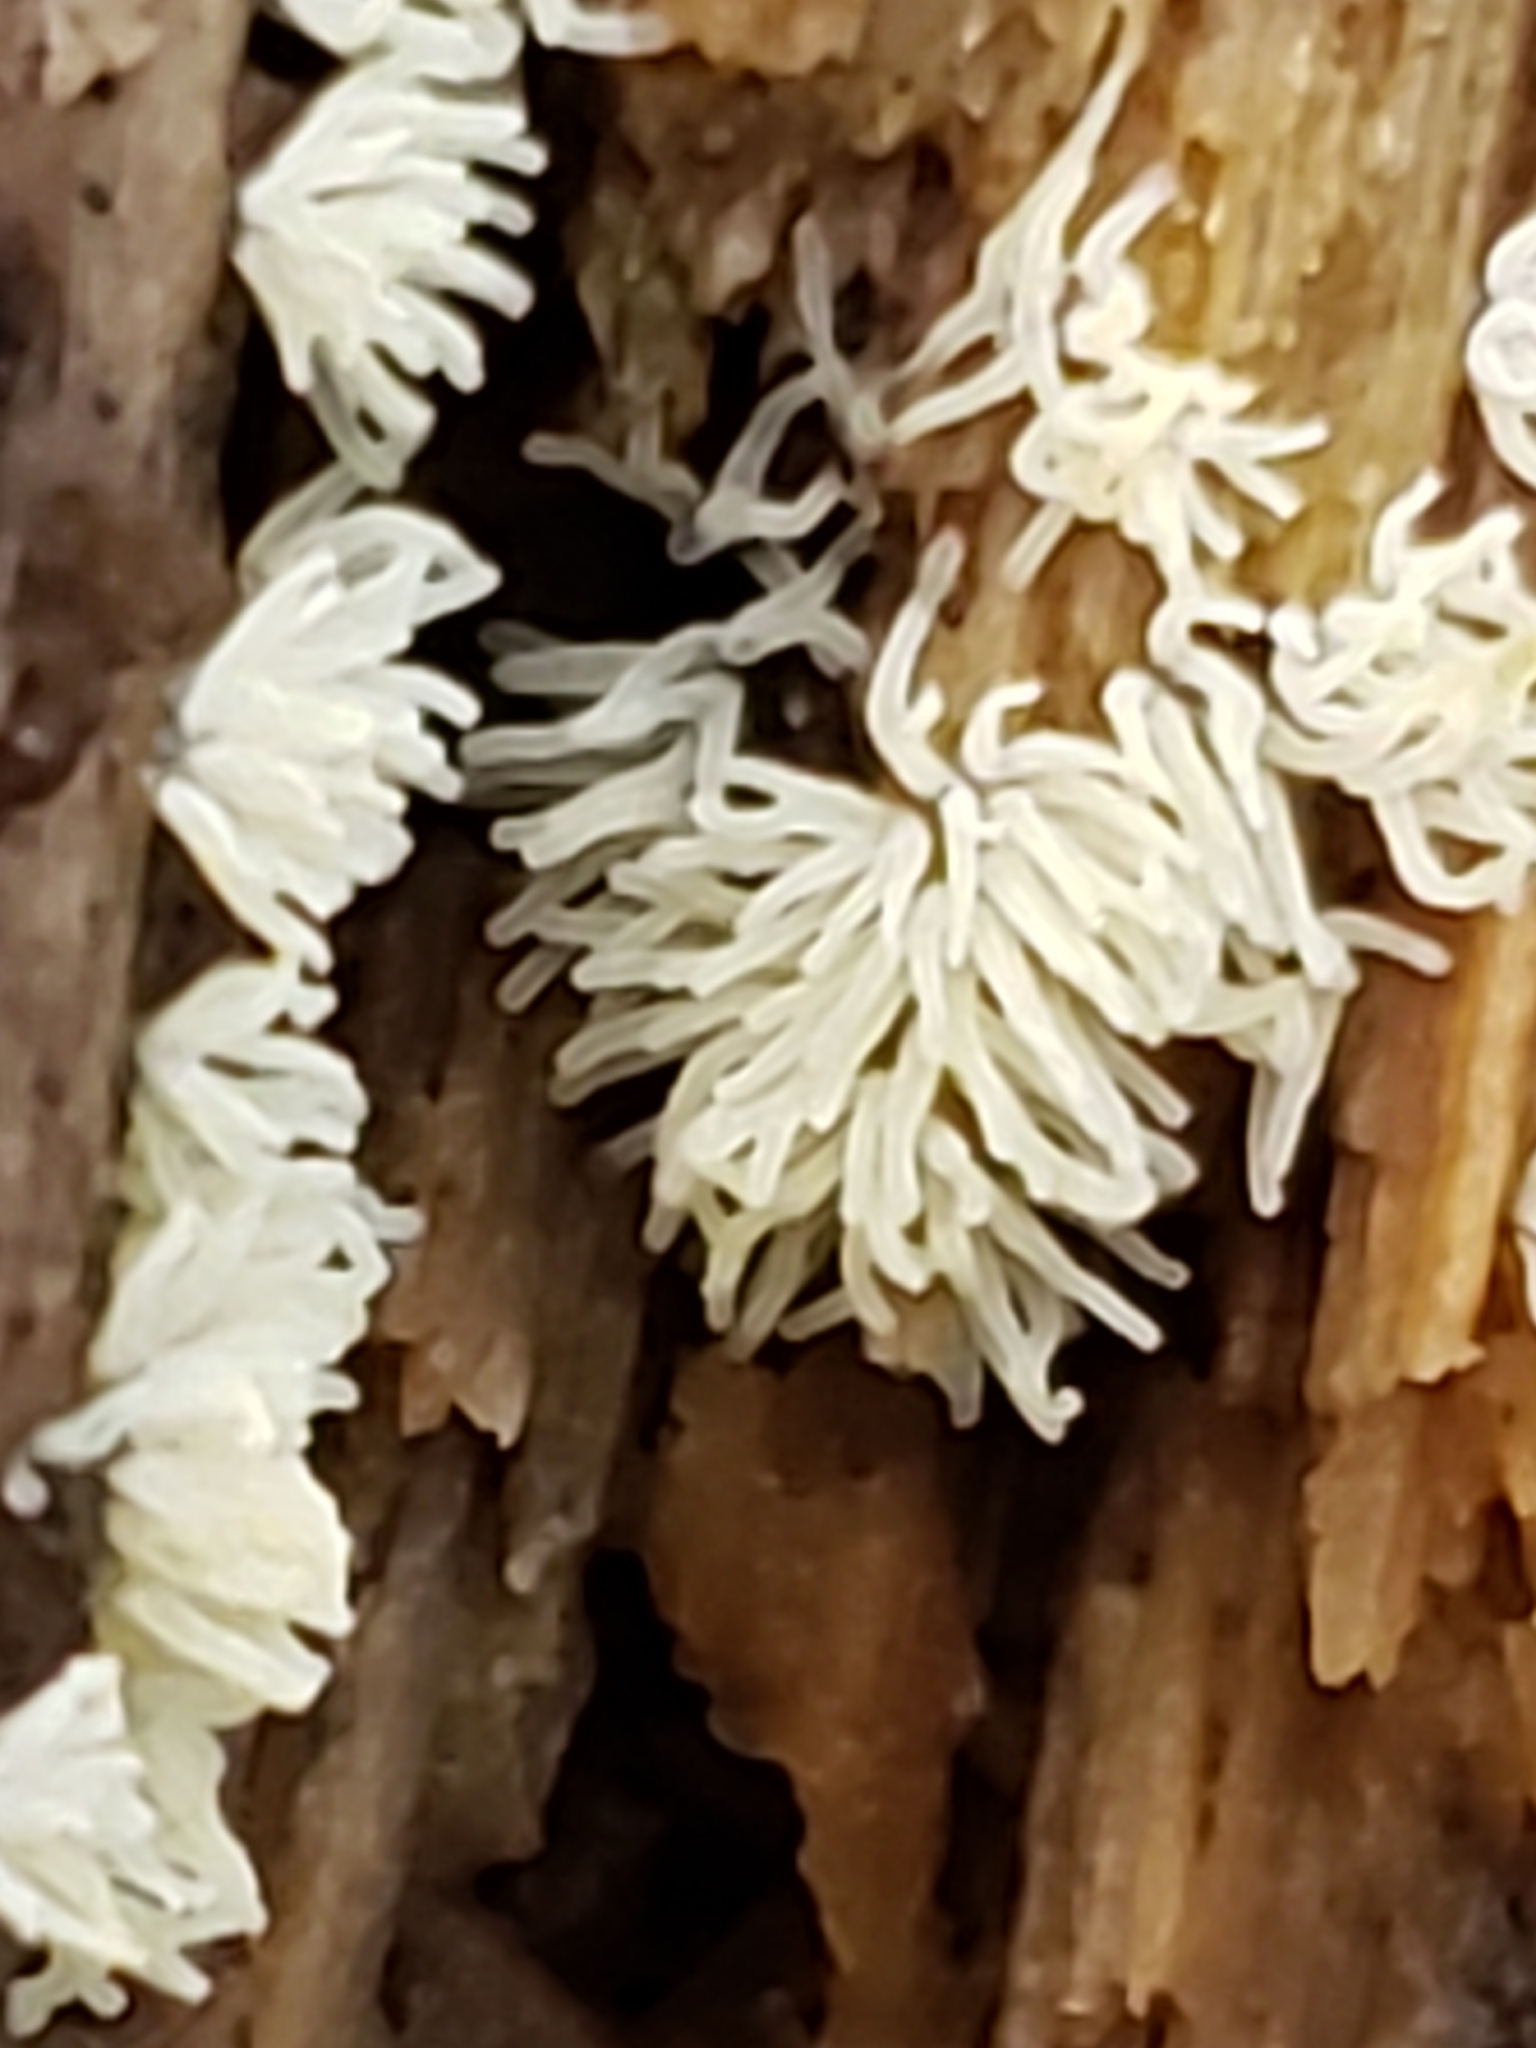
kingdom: Protozoa
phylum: Mycetozoa
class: Protosteliomycetes
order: Ceratiomyxales
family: Ceratiomyxaceae
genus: Ceratiomyxa
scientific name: Ceratiomyxa fruticulosa
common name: Honeycomb coral slime mold
